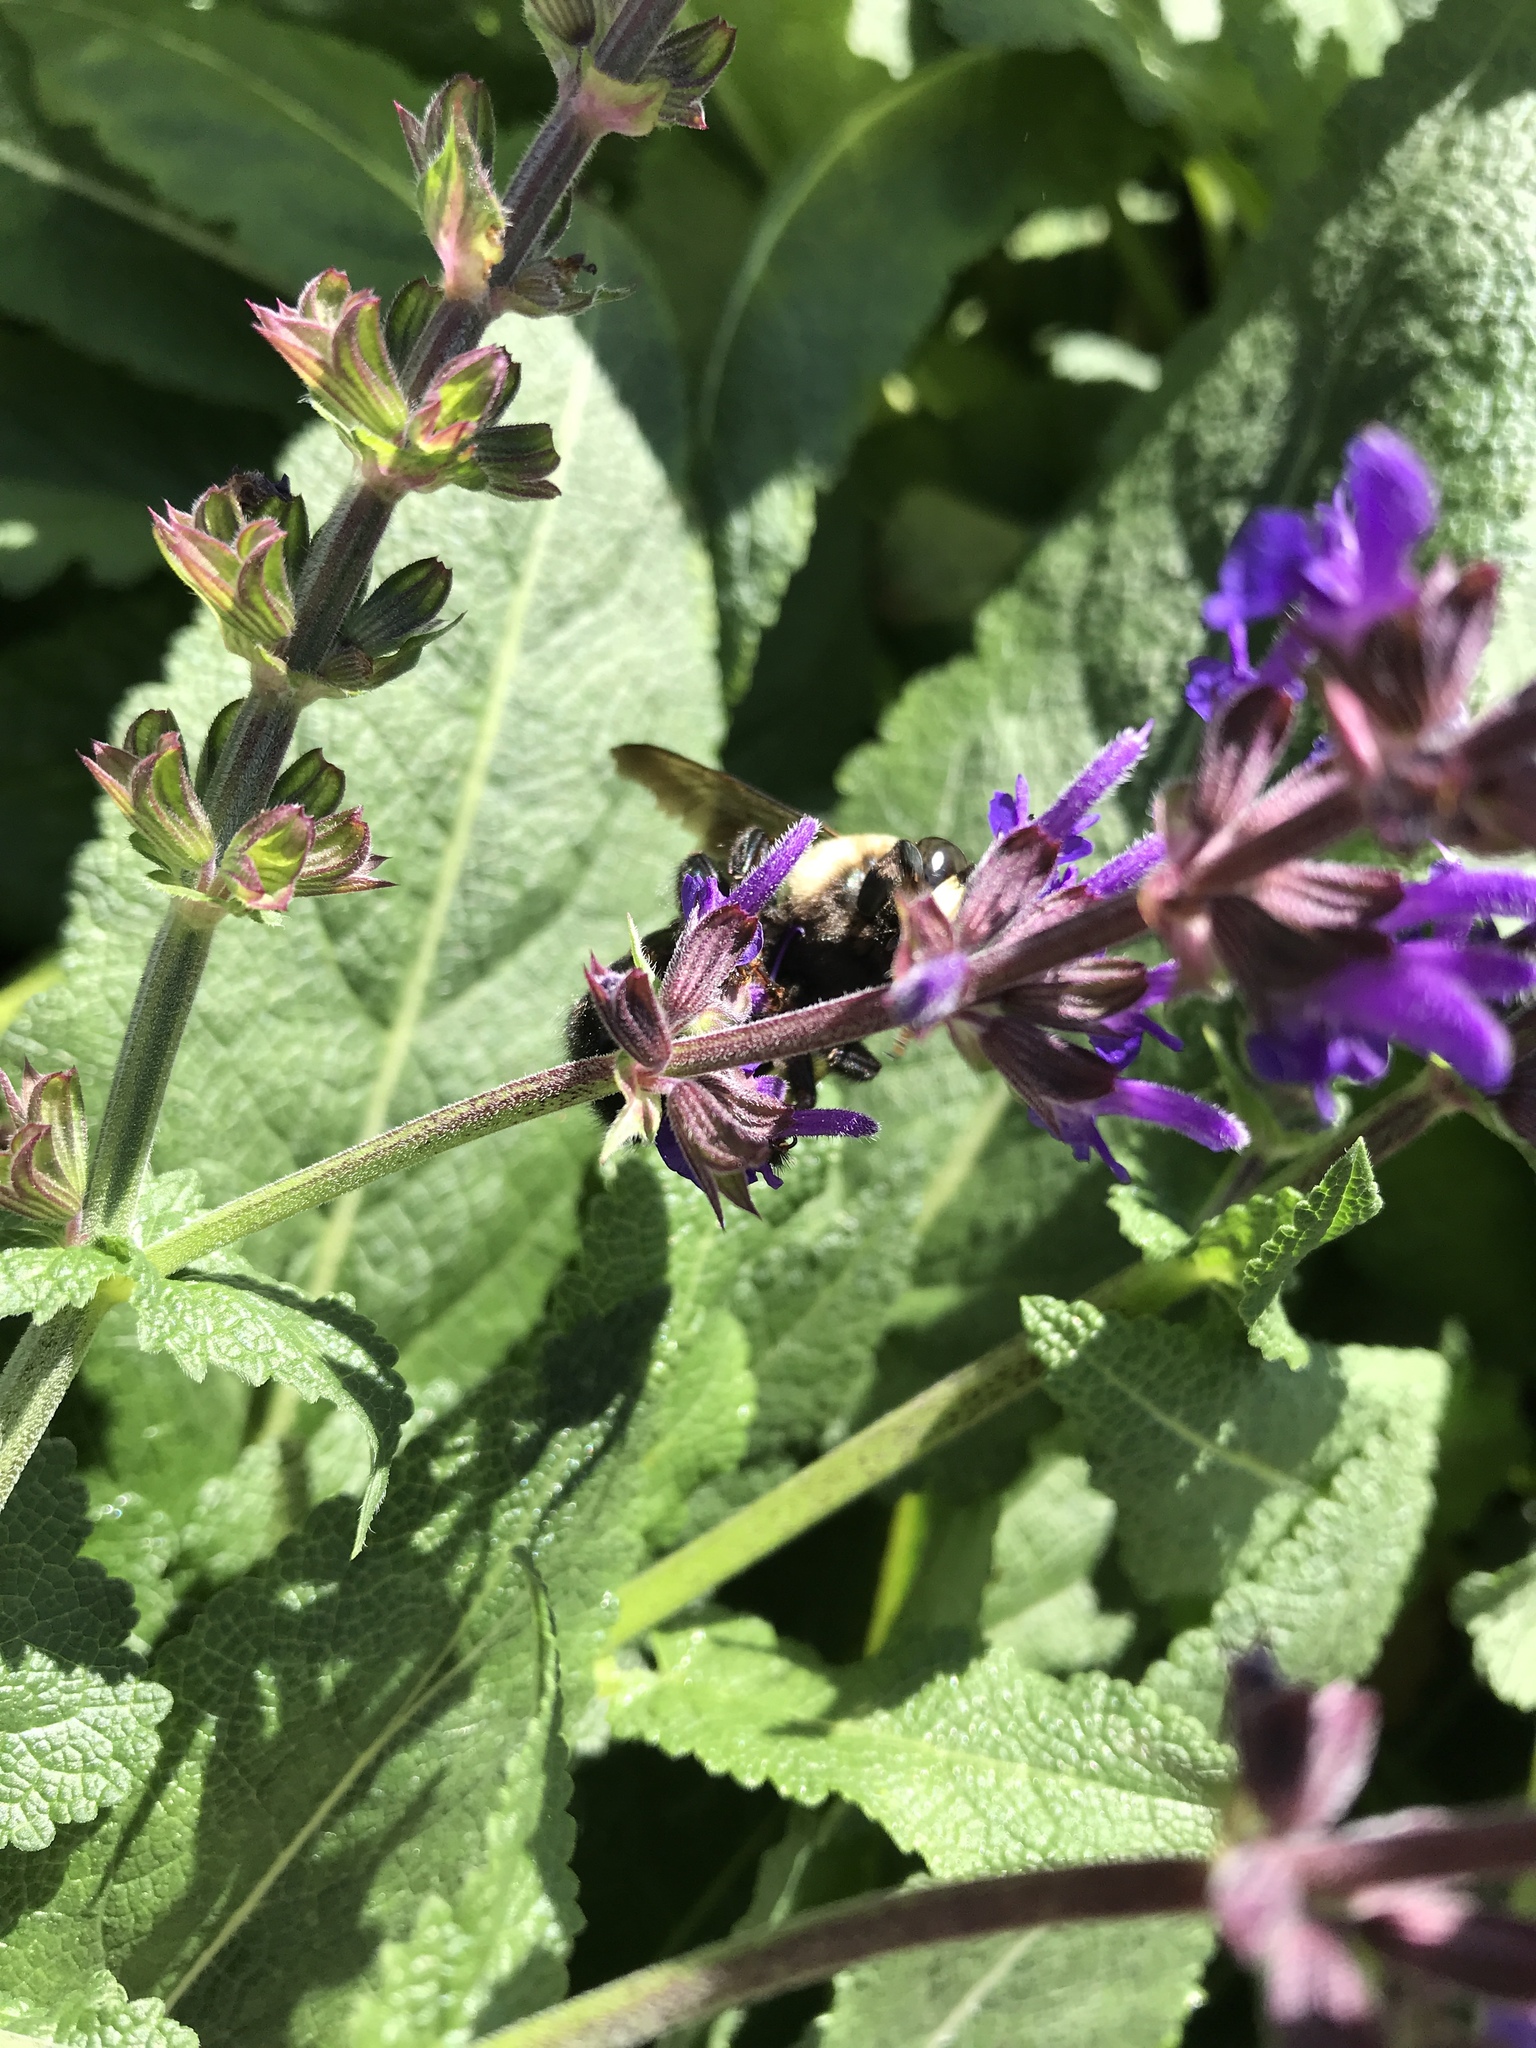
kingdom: Animalia
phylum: Arthropoda
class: Insecta
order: Hymenoptera
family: Apidae
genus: Xylocopa
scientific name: Xylocopa virginica
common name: Carpenter bee
